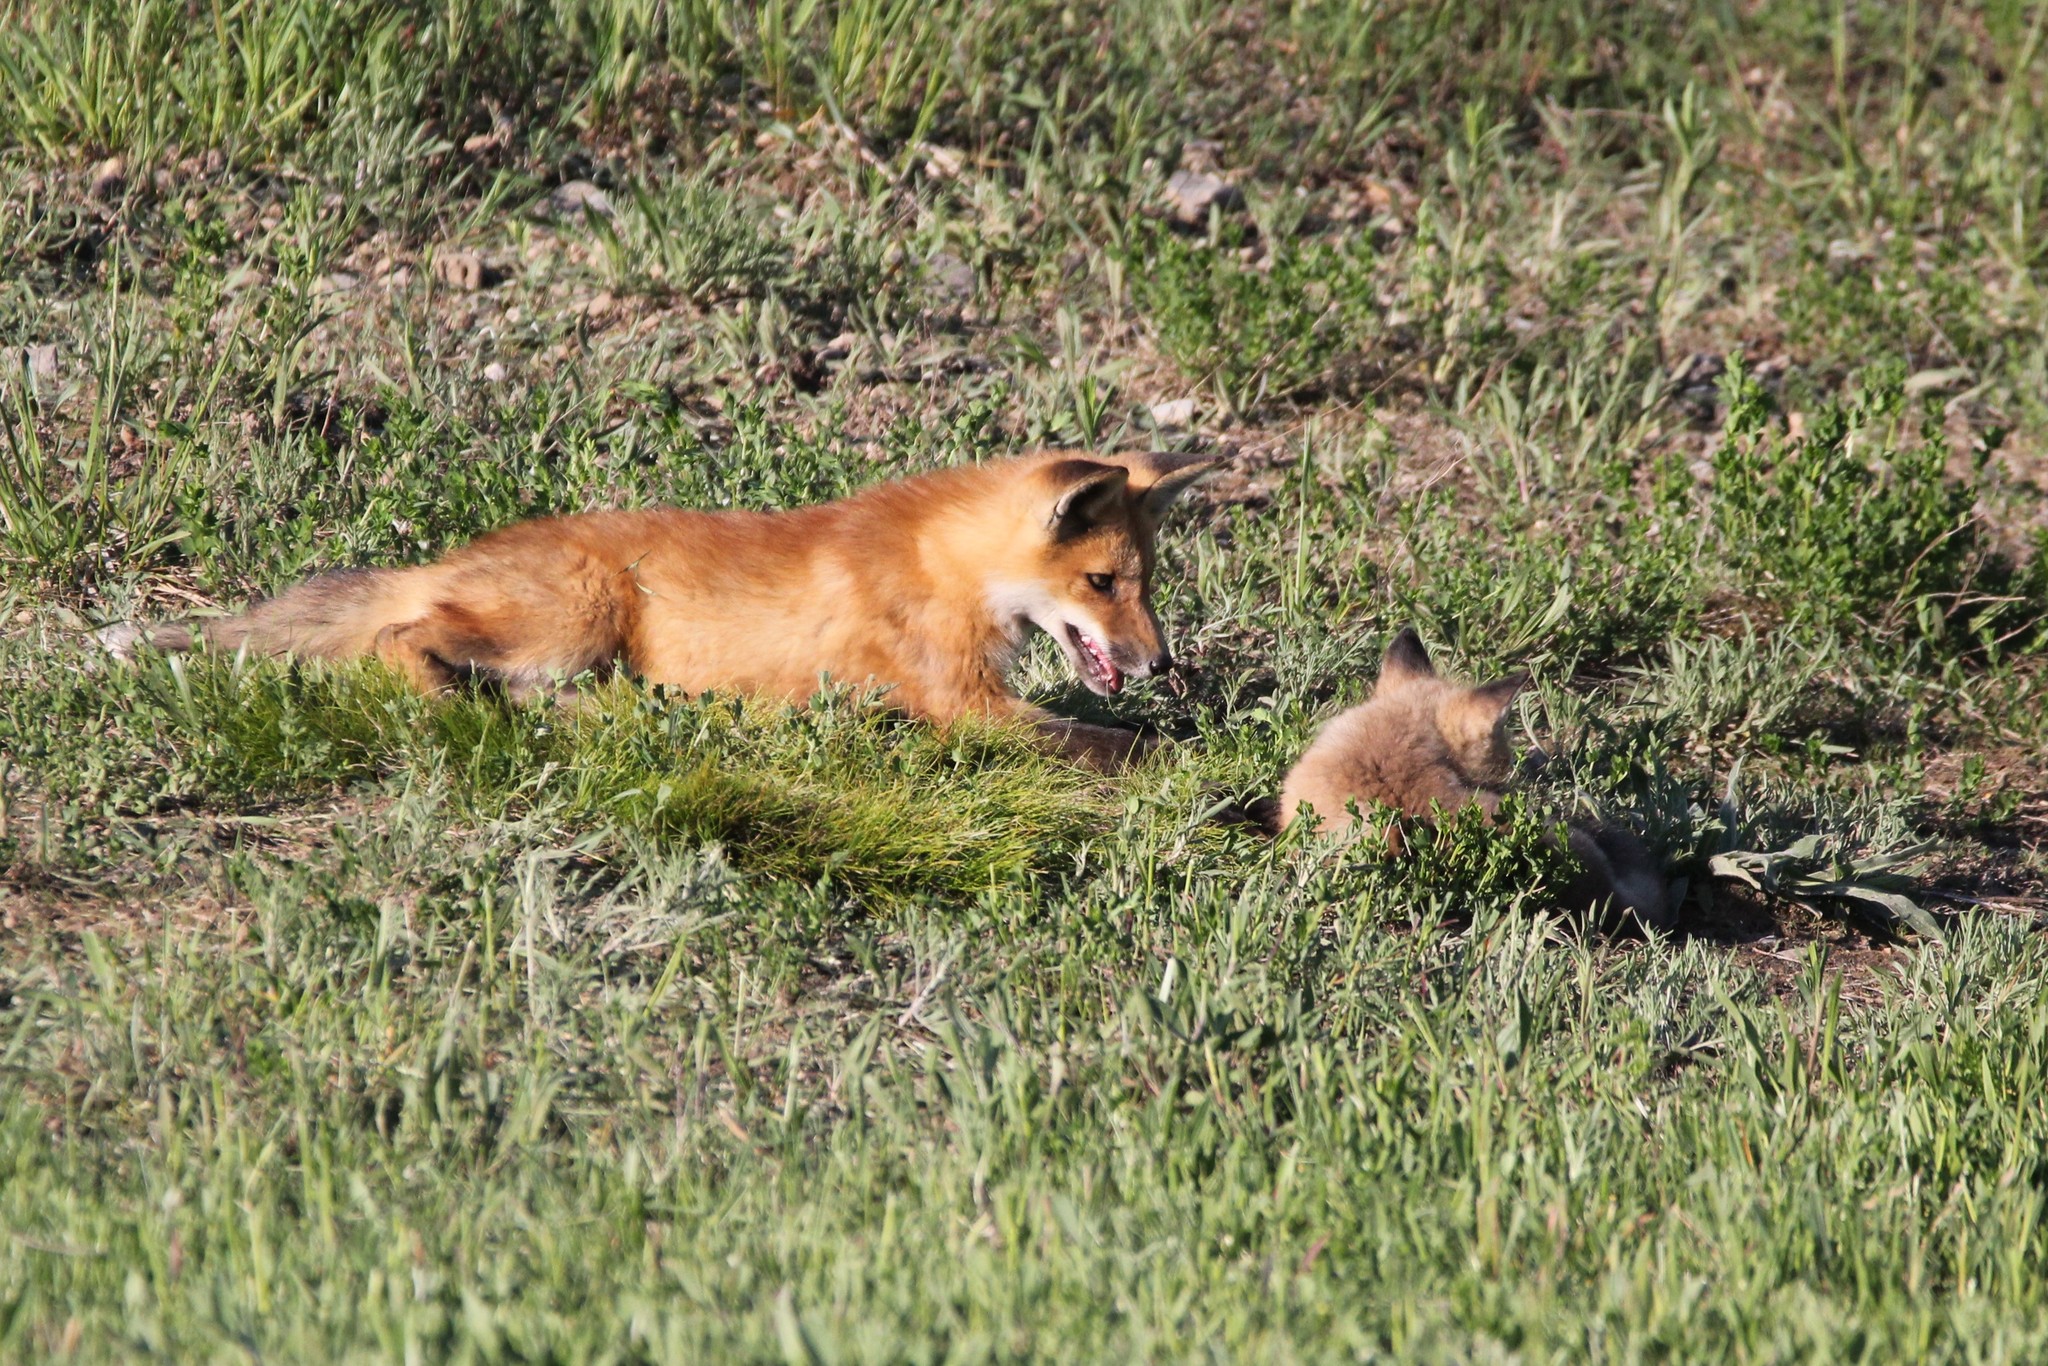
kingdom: Animalia
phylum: Chordata
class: Mammalia
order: Carnivora
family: Canidae
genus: Vulpes
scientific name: Vulpes vulpes
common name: Red fox
